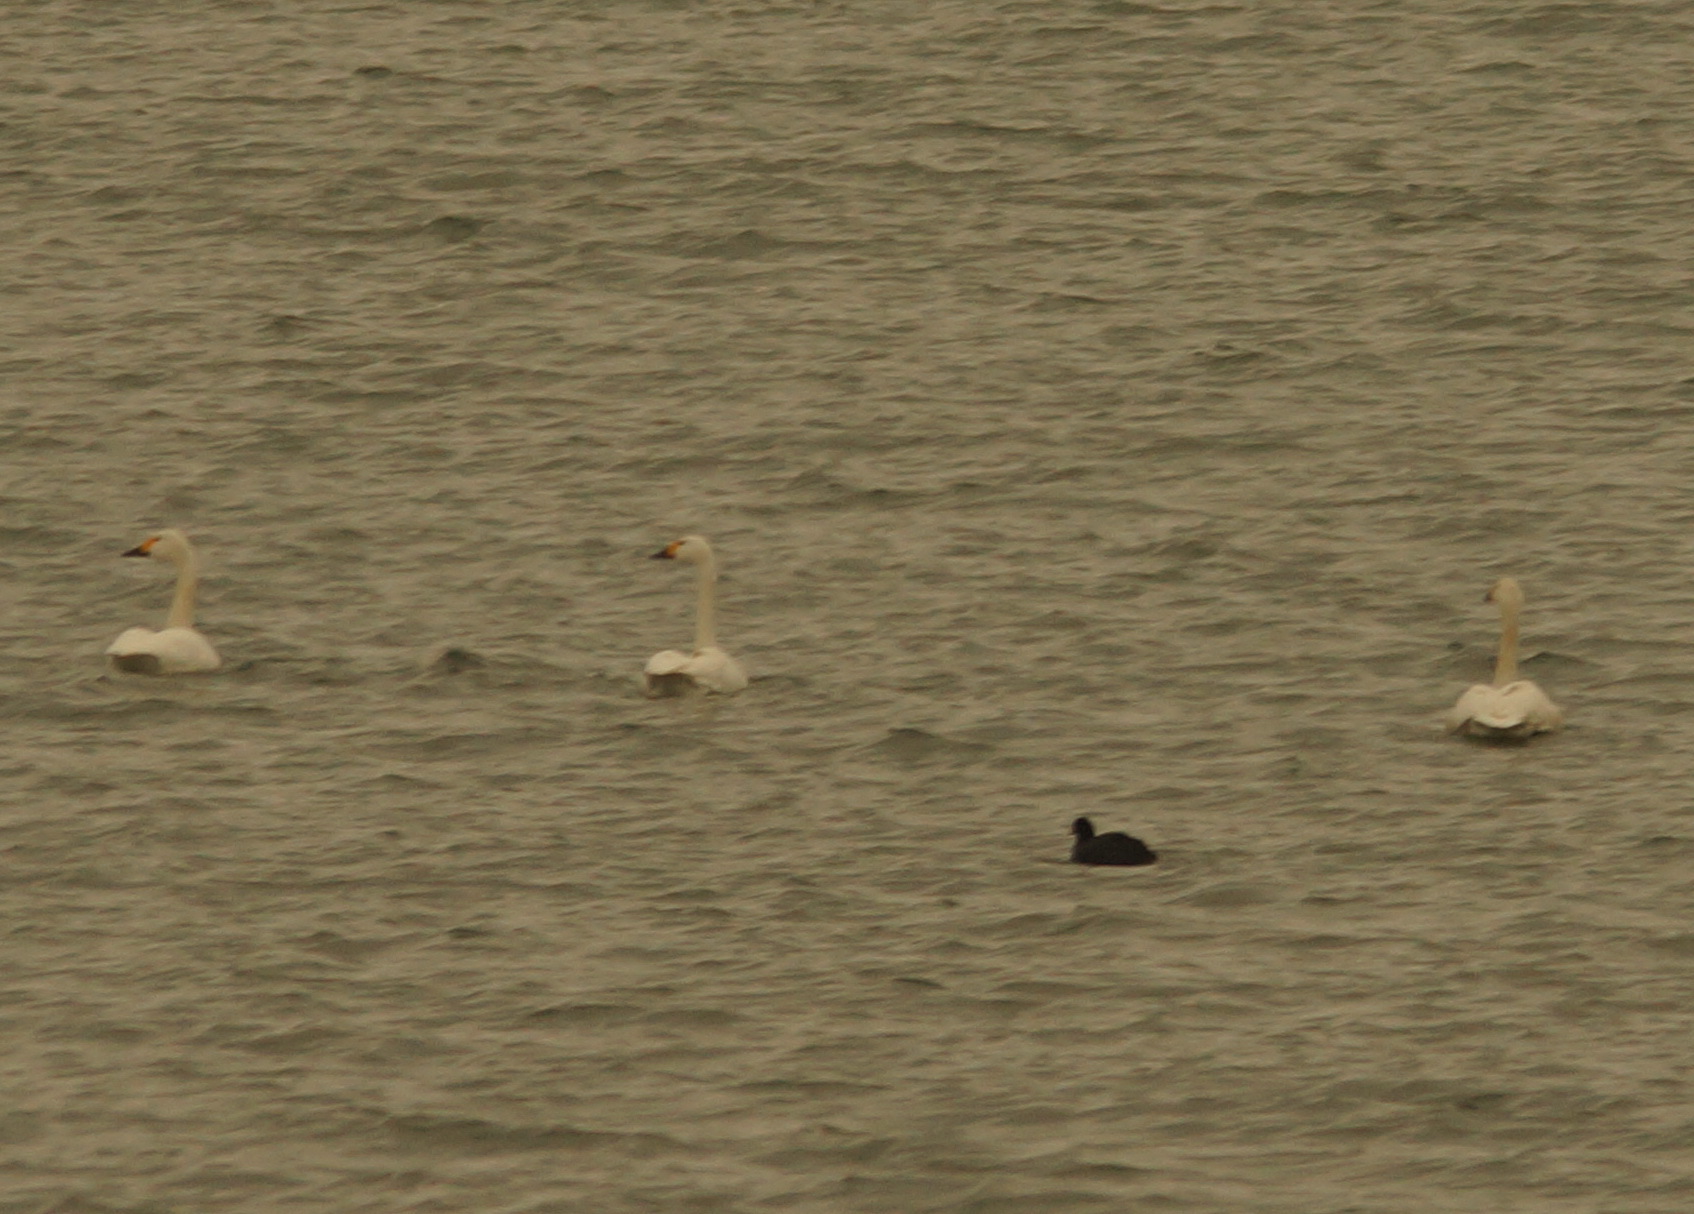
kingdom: Animalia
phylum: Chordata
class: Aves
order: Anseriformes
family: Anatidae
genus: Cygnus
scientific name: Cygnus columbianus
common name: Tundra swan
